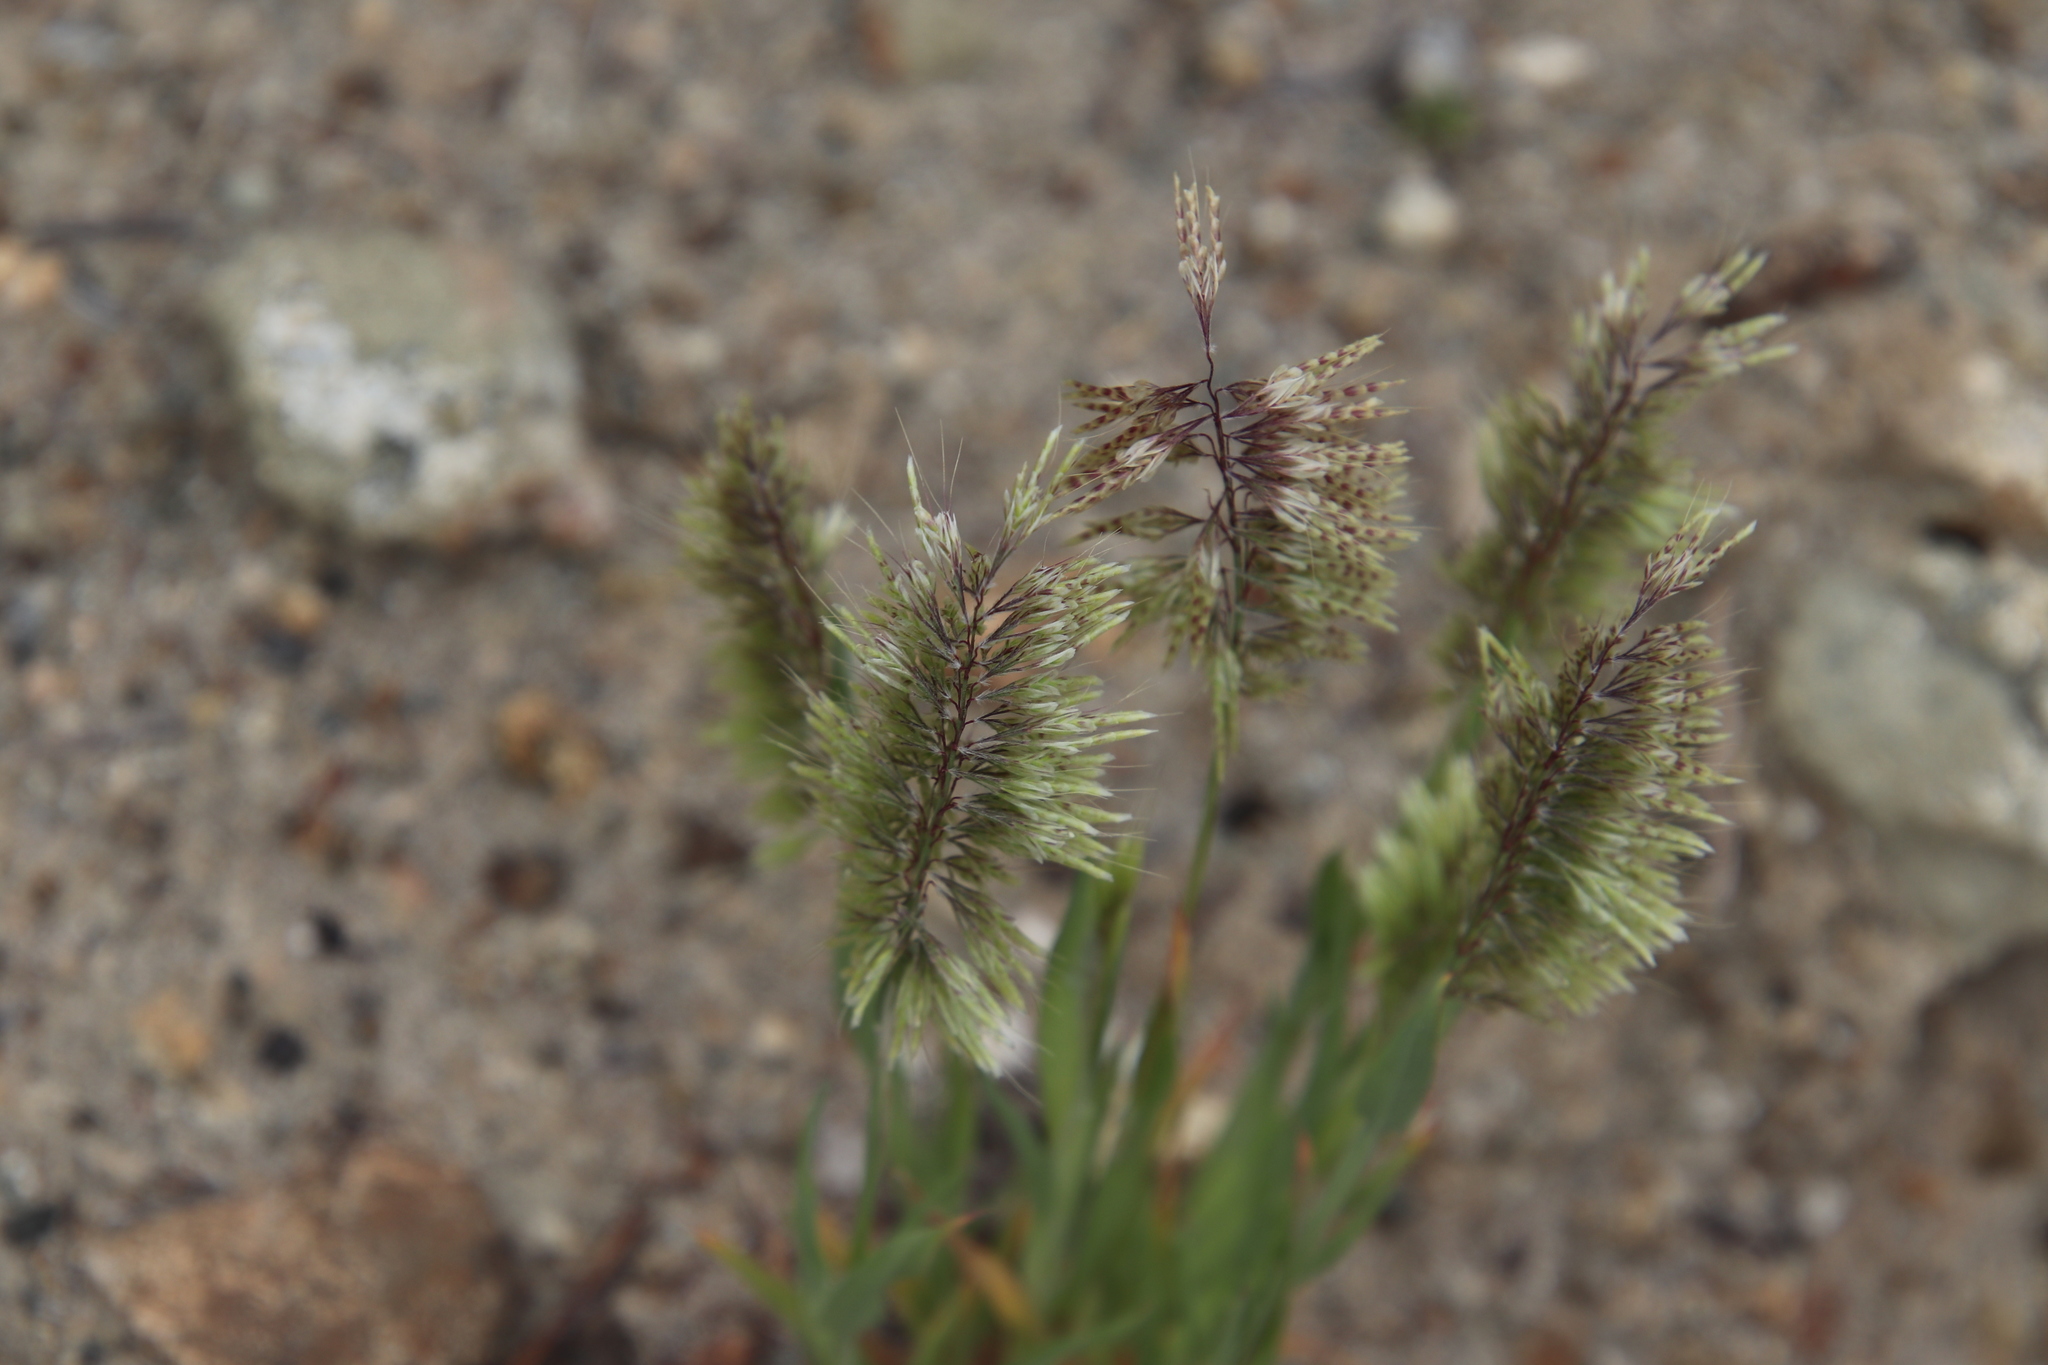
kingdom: Plantae
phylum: Tracheophyta
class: Liliopsida
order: Poales
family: Poaceae
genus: Lamarckia
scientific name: Lamarckia aurea
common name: Golden dog's-tail
